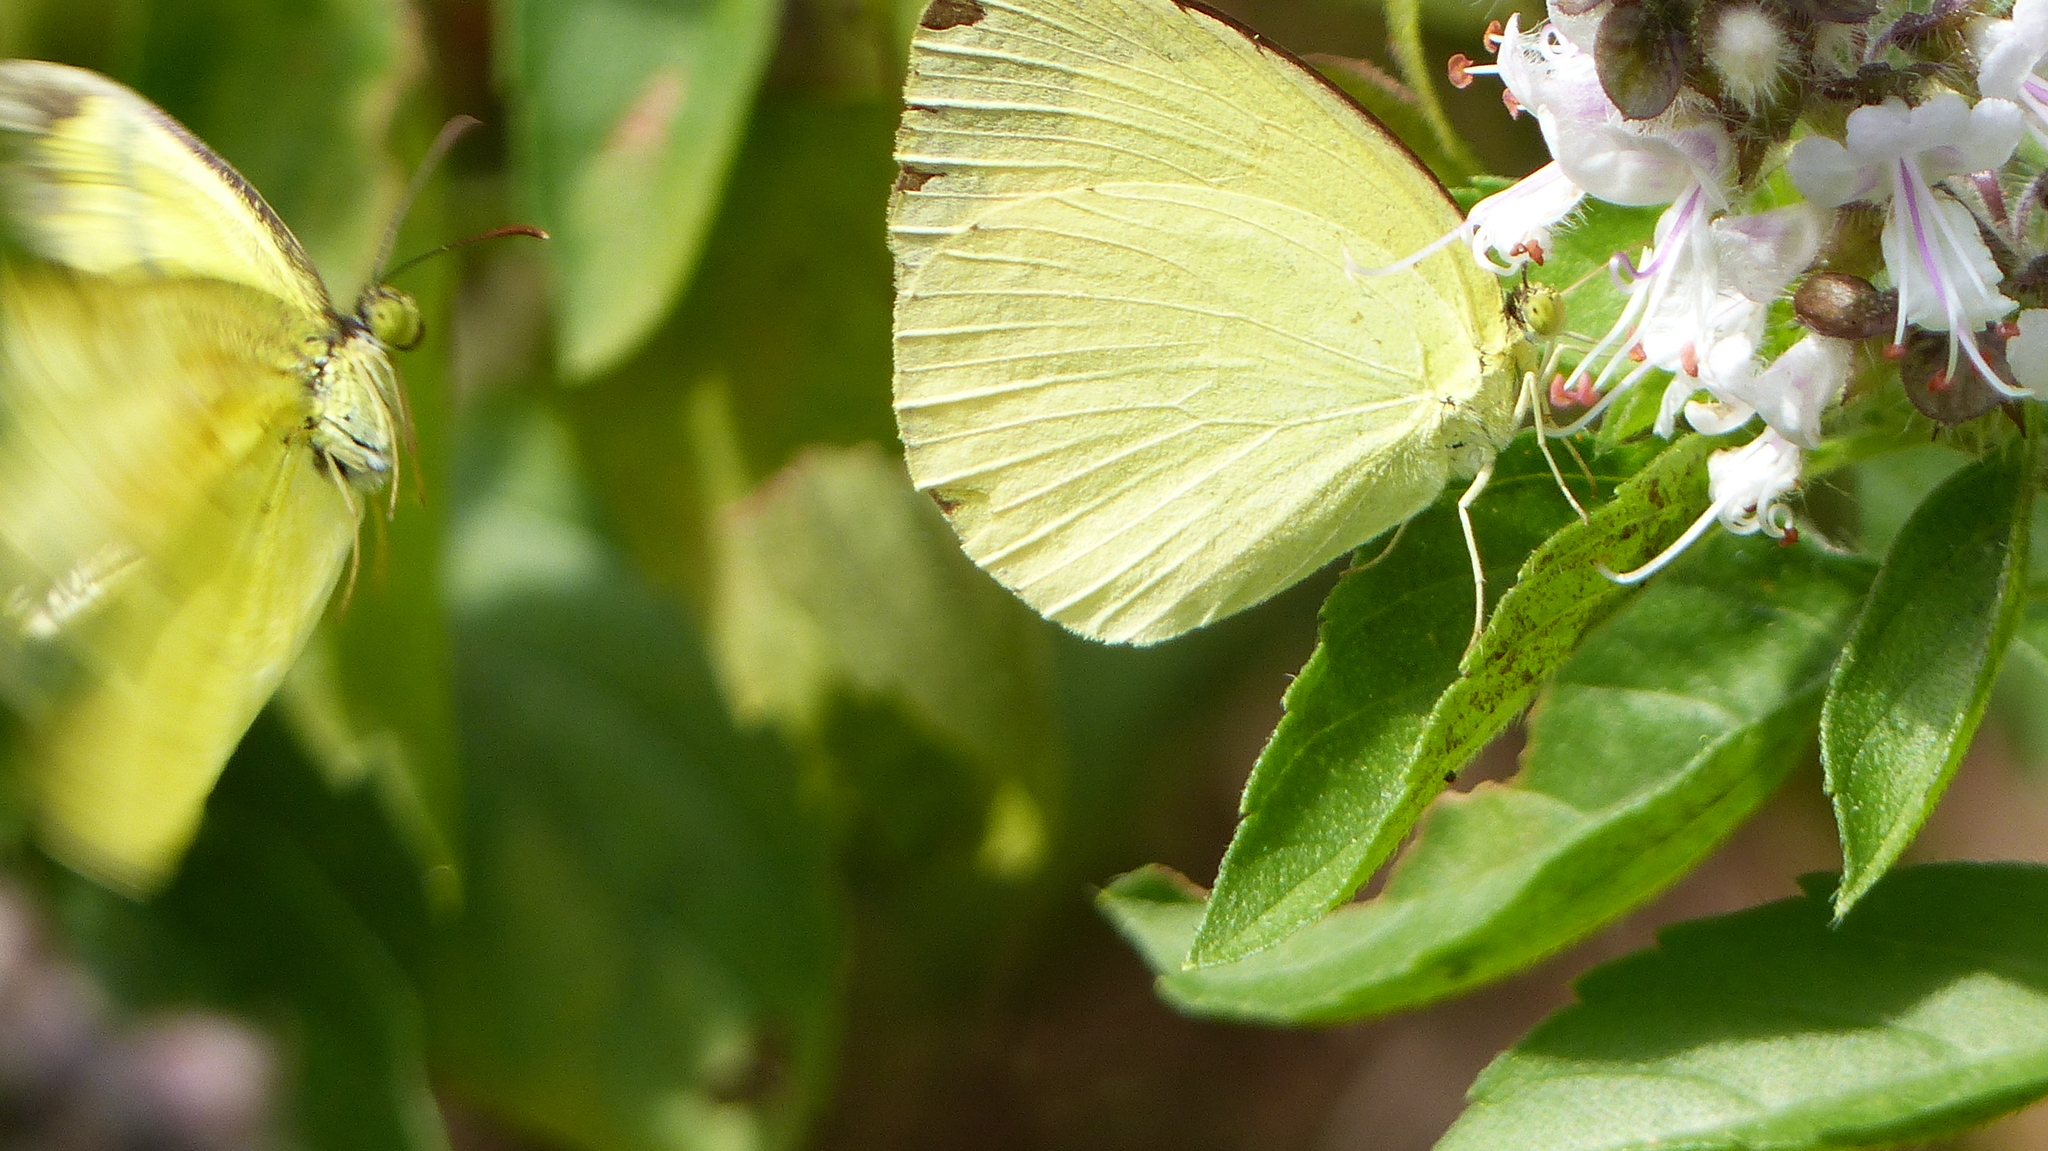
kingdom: Animalia
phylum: Arthropoda
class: Insecta
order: Lepidoptera
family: Pieridae
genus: Eurema
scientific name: Eurema hecabe
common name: Pale grass yellow
